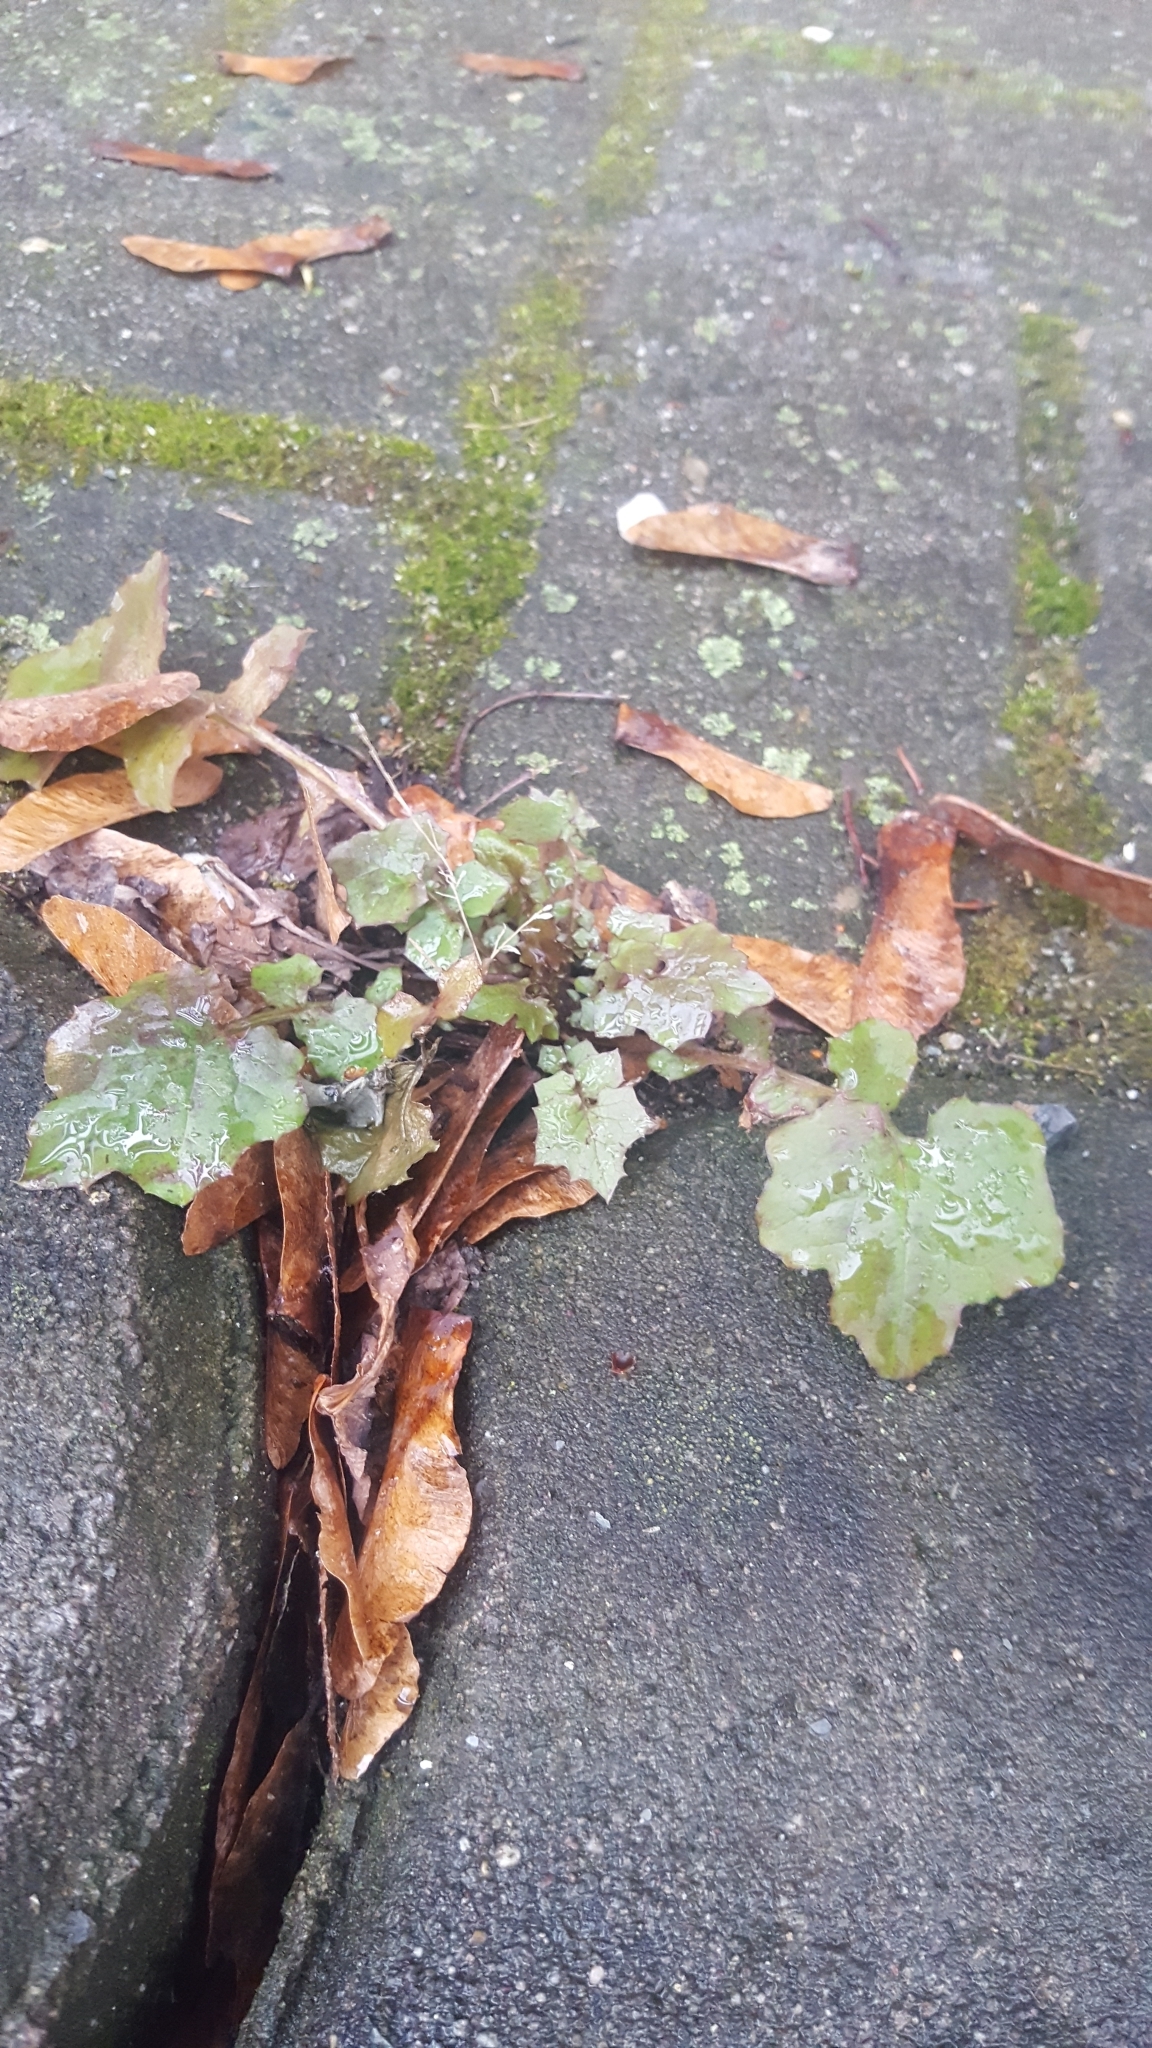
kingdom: Plantae
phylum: Tracheophyta
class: Magnoliopsida
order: Asterales
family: Asteraceae
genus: Mycelis
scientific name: Mycelis muralis
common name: Wall lettuce
